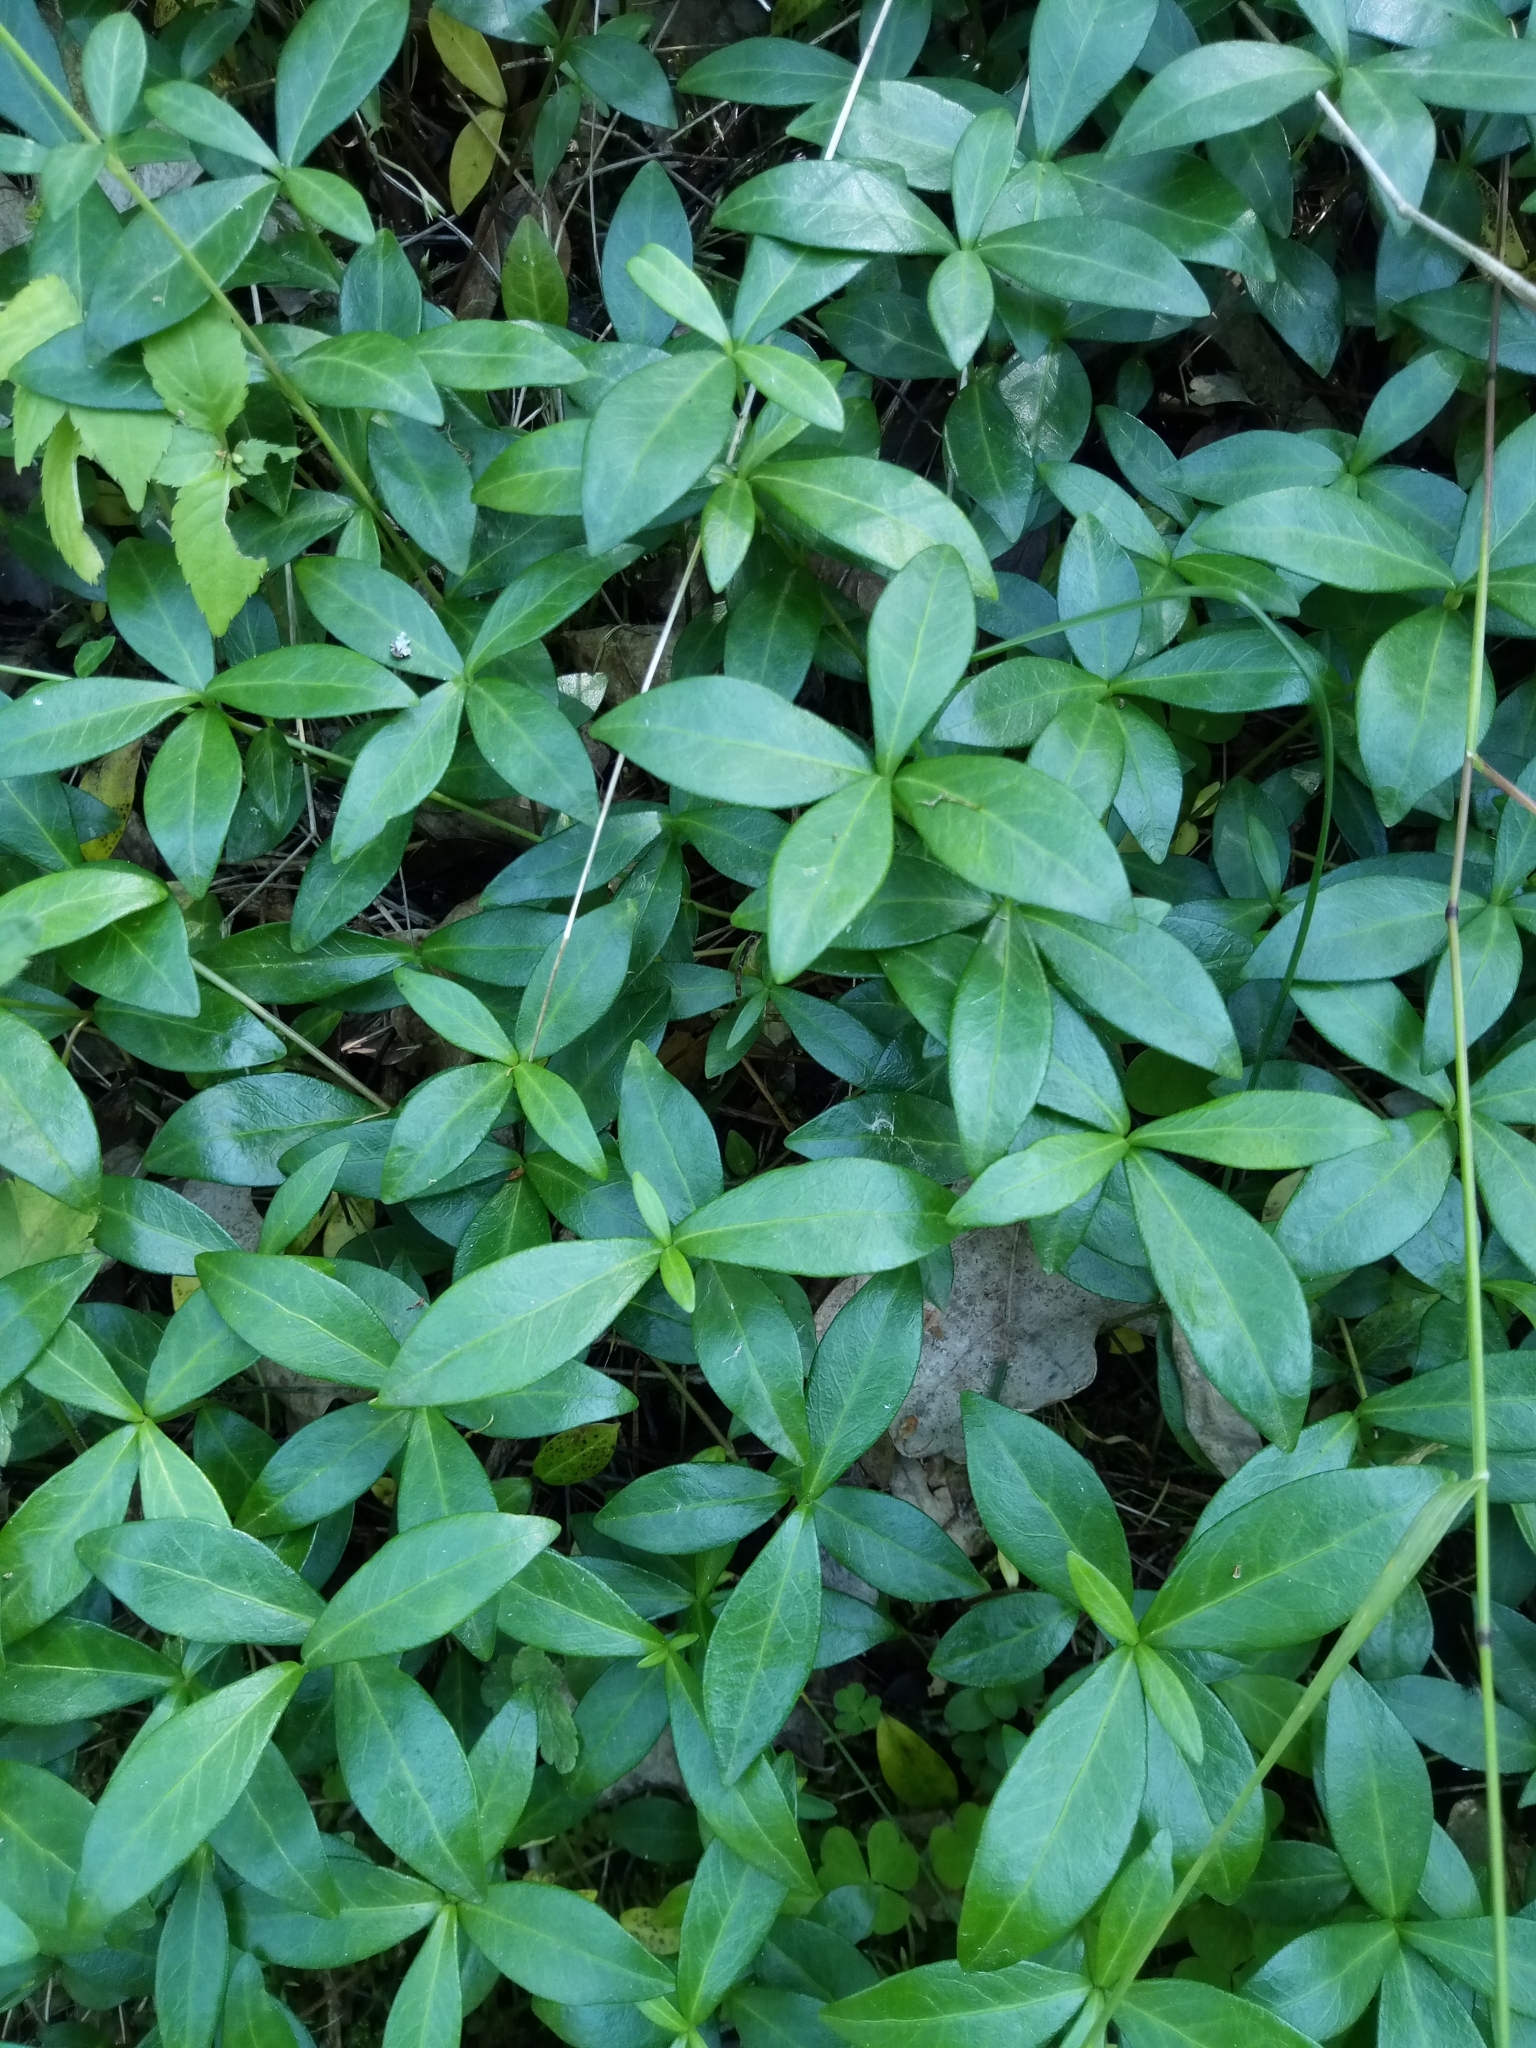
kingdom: Plantae
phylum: Tracheophyta
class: Magnoliopsida
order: Gentianales
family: Apocynaceae
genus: Vinca
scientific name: Vinca minor
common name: Lesser periwinkle
